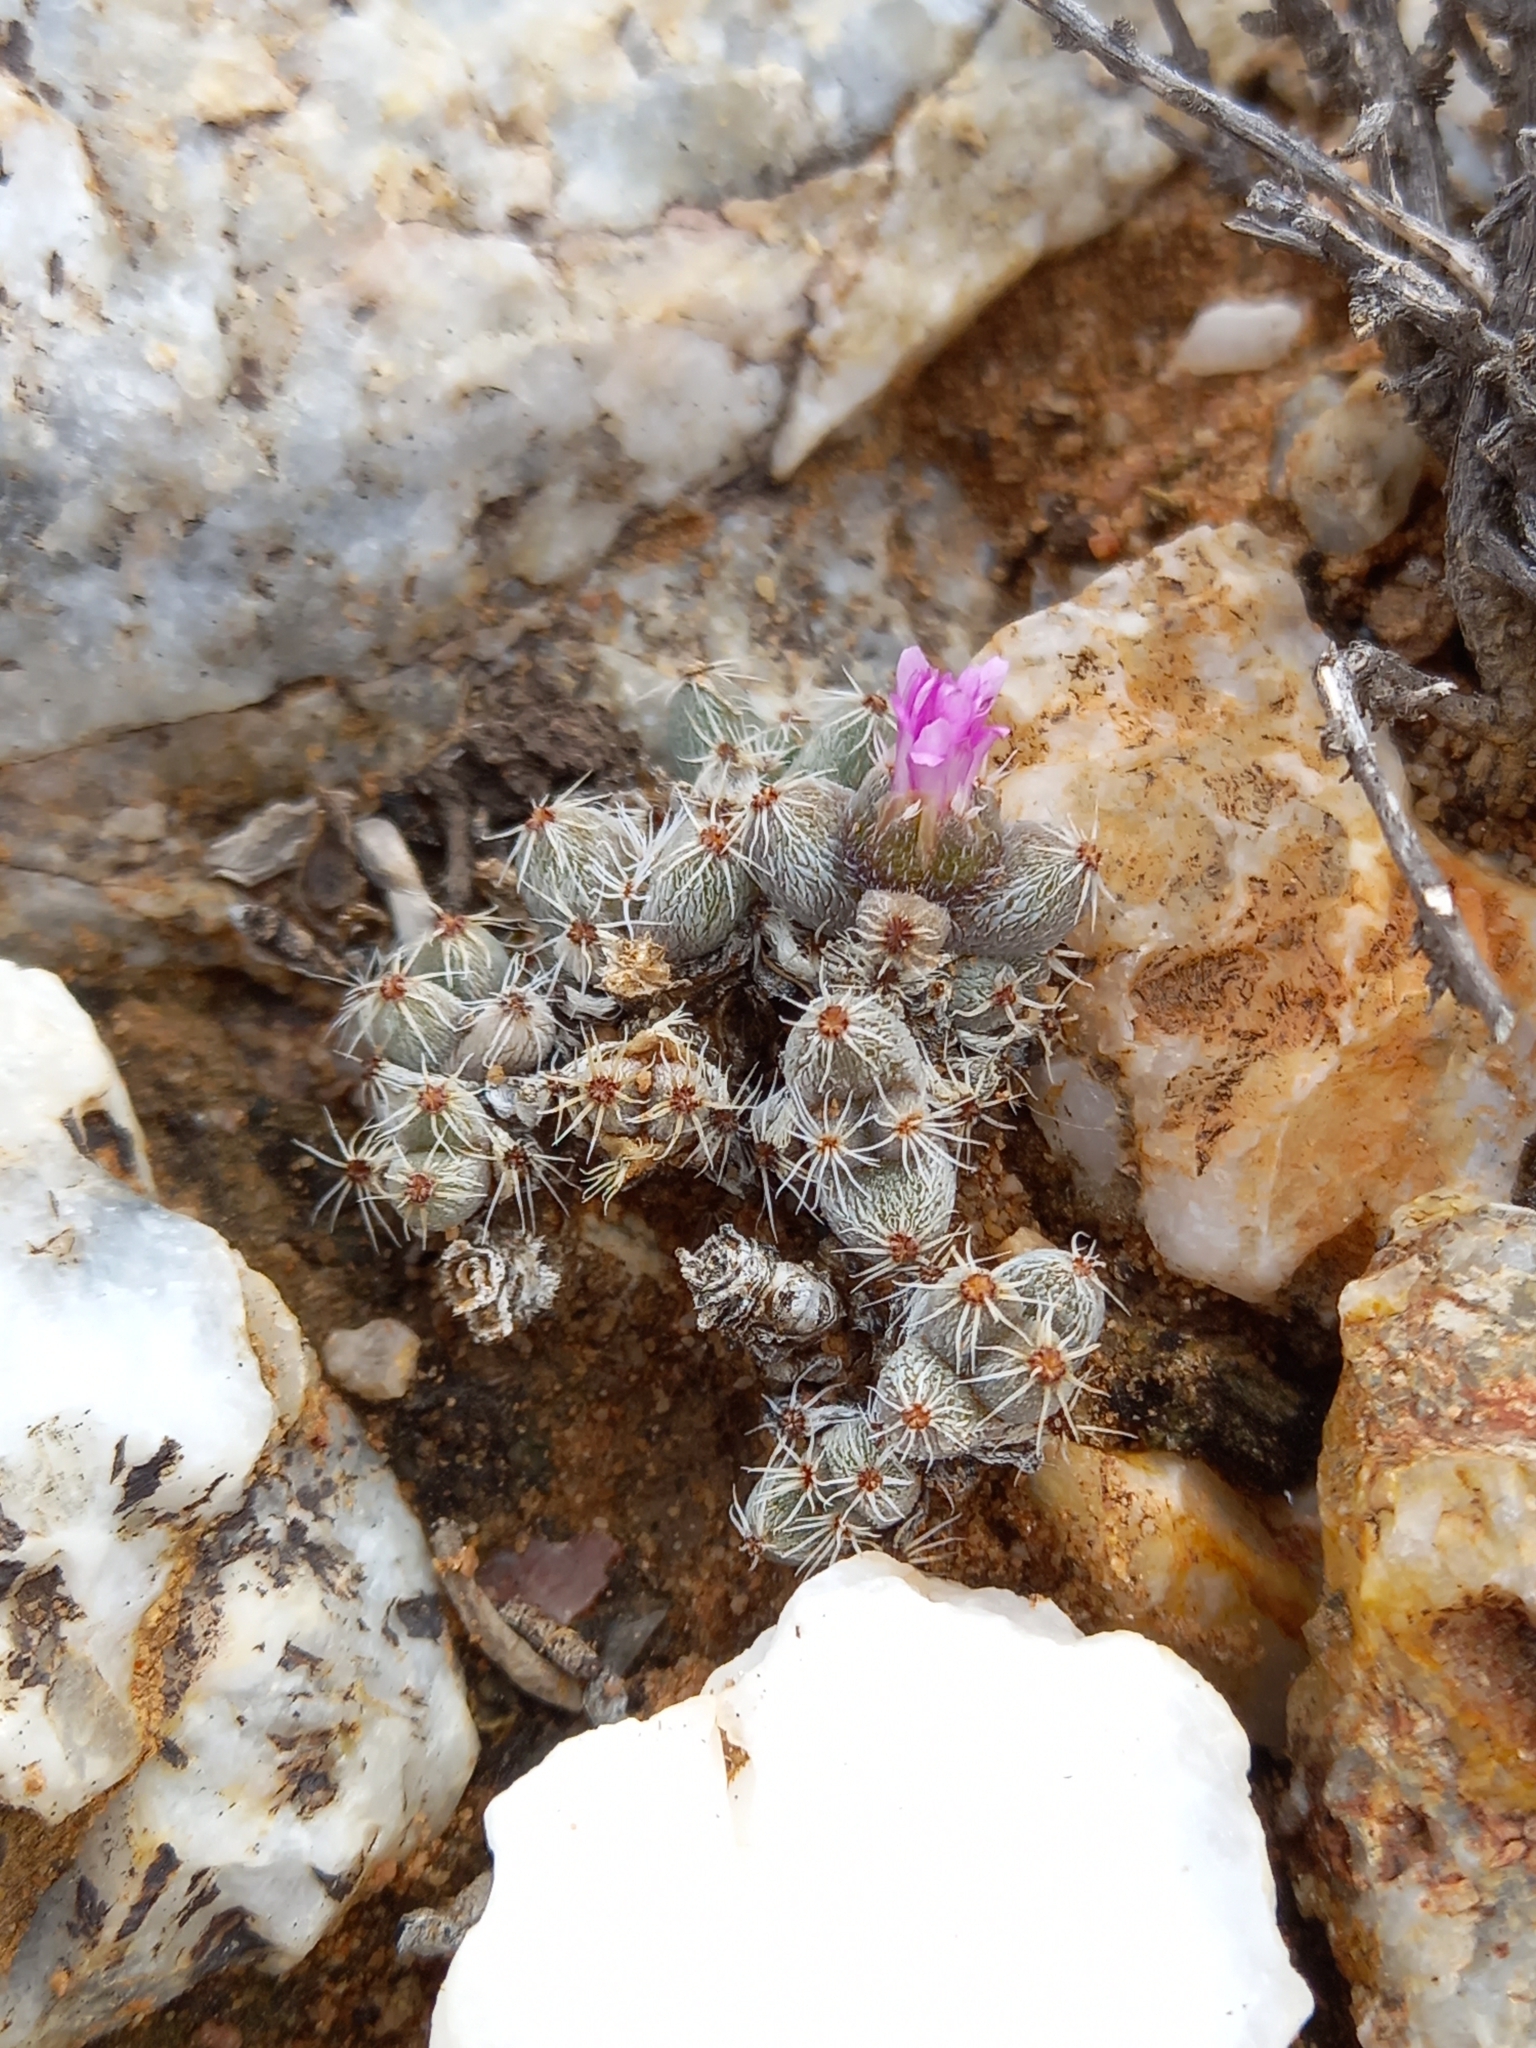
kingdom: Plantae
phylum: Tracheophyta
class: Magnoliopsida
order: Caryophyllales
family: Aizoaceae
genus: Trichodiadema
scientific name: Trichodiadema marlothii
